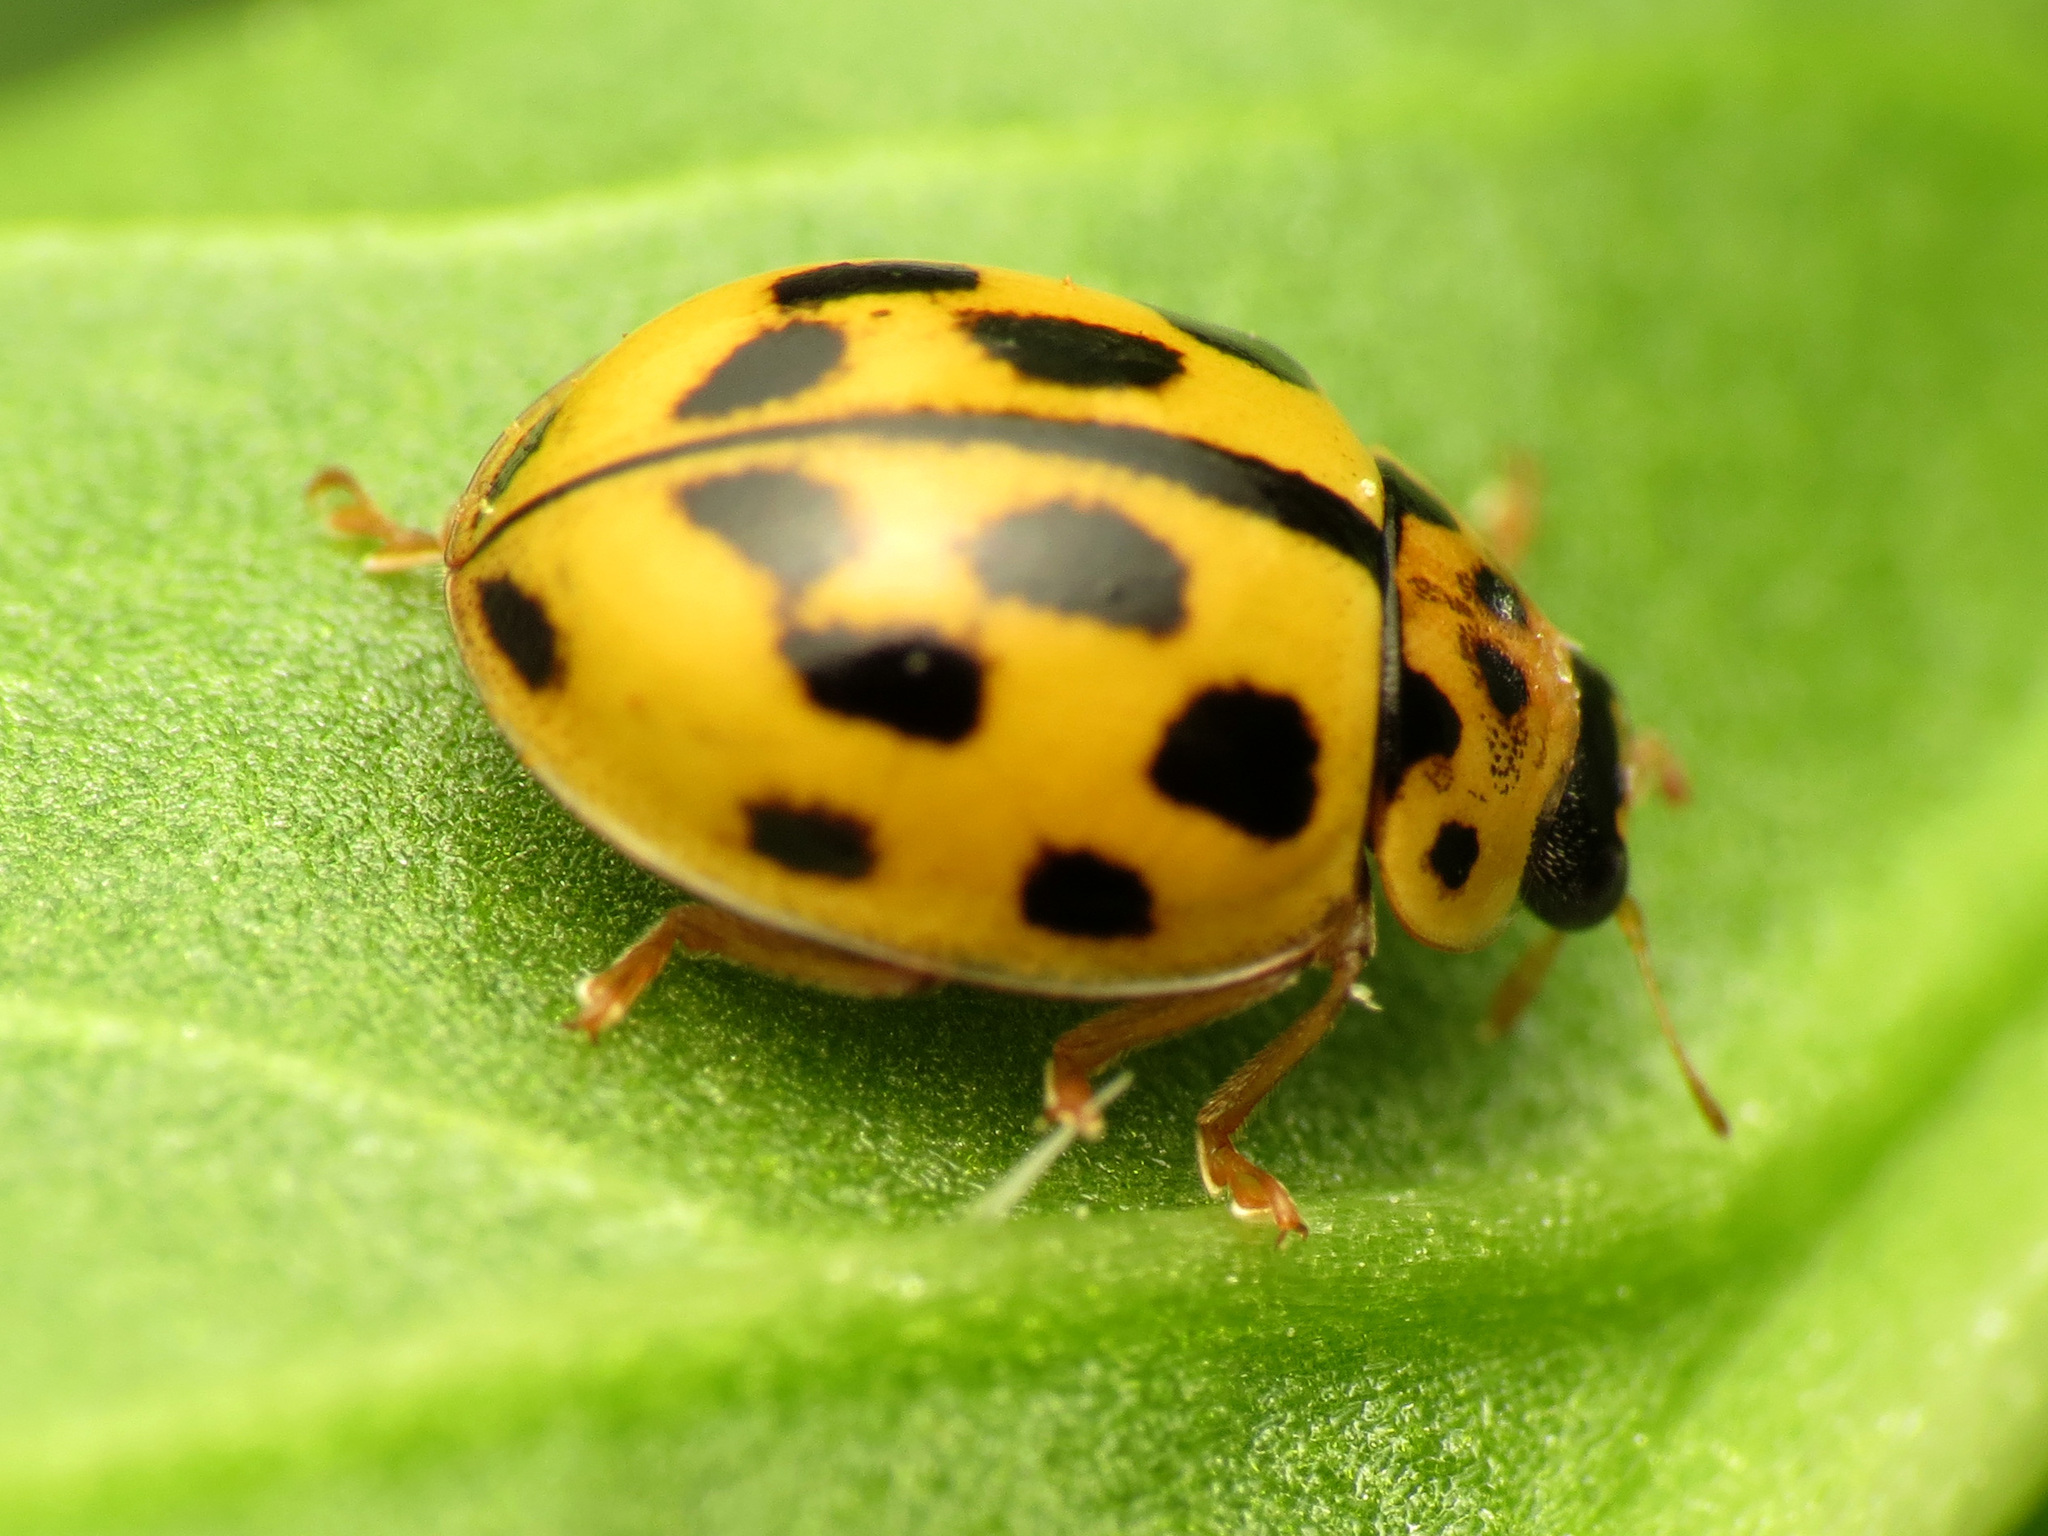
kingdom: Animalia
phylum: Arthropoda
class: Insecta
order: Coleoptera
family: Coccinellidae
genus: Propylaea
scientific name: Propylaea quatuordecimpunctata
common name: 14-spotted ladybird beetle
